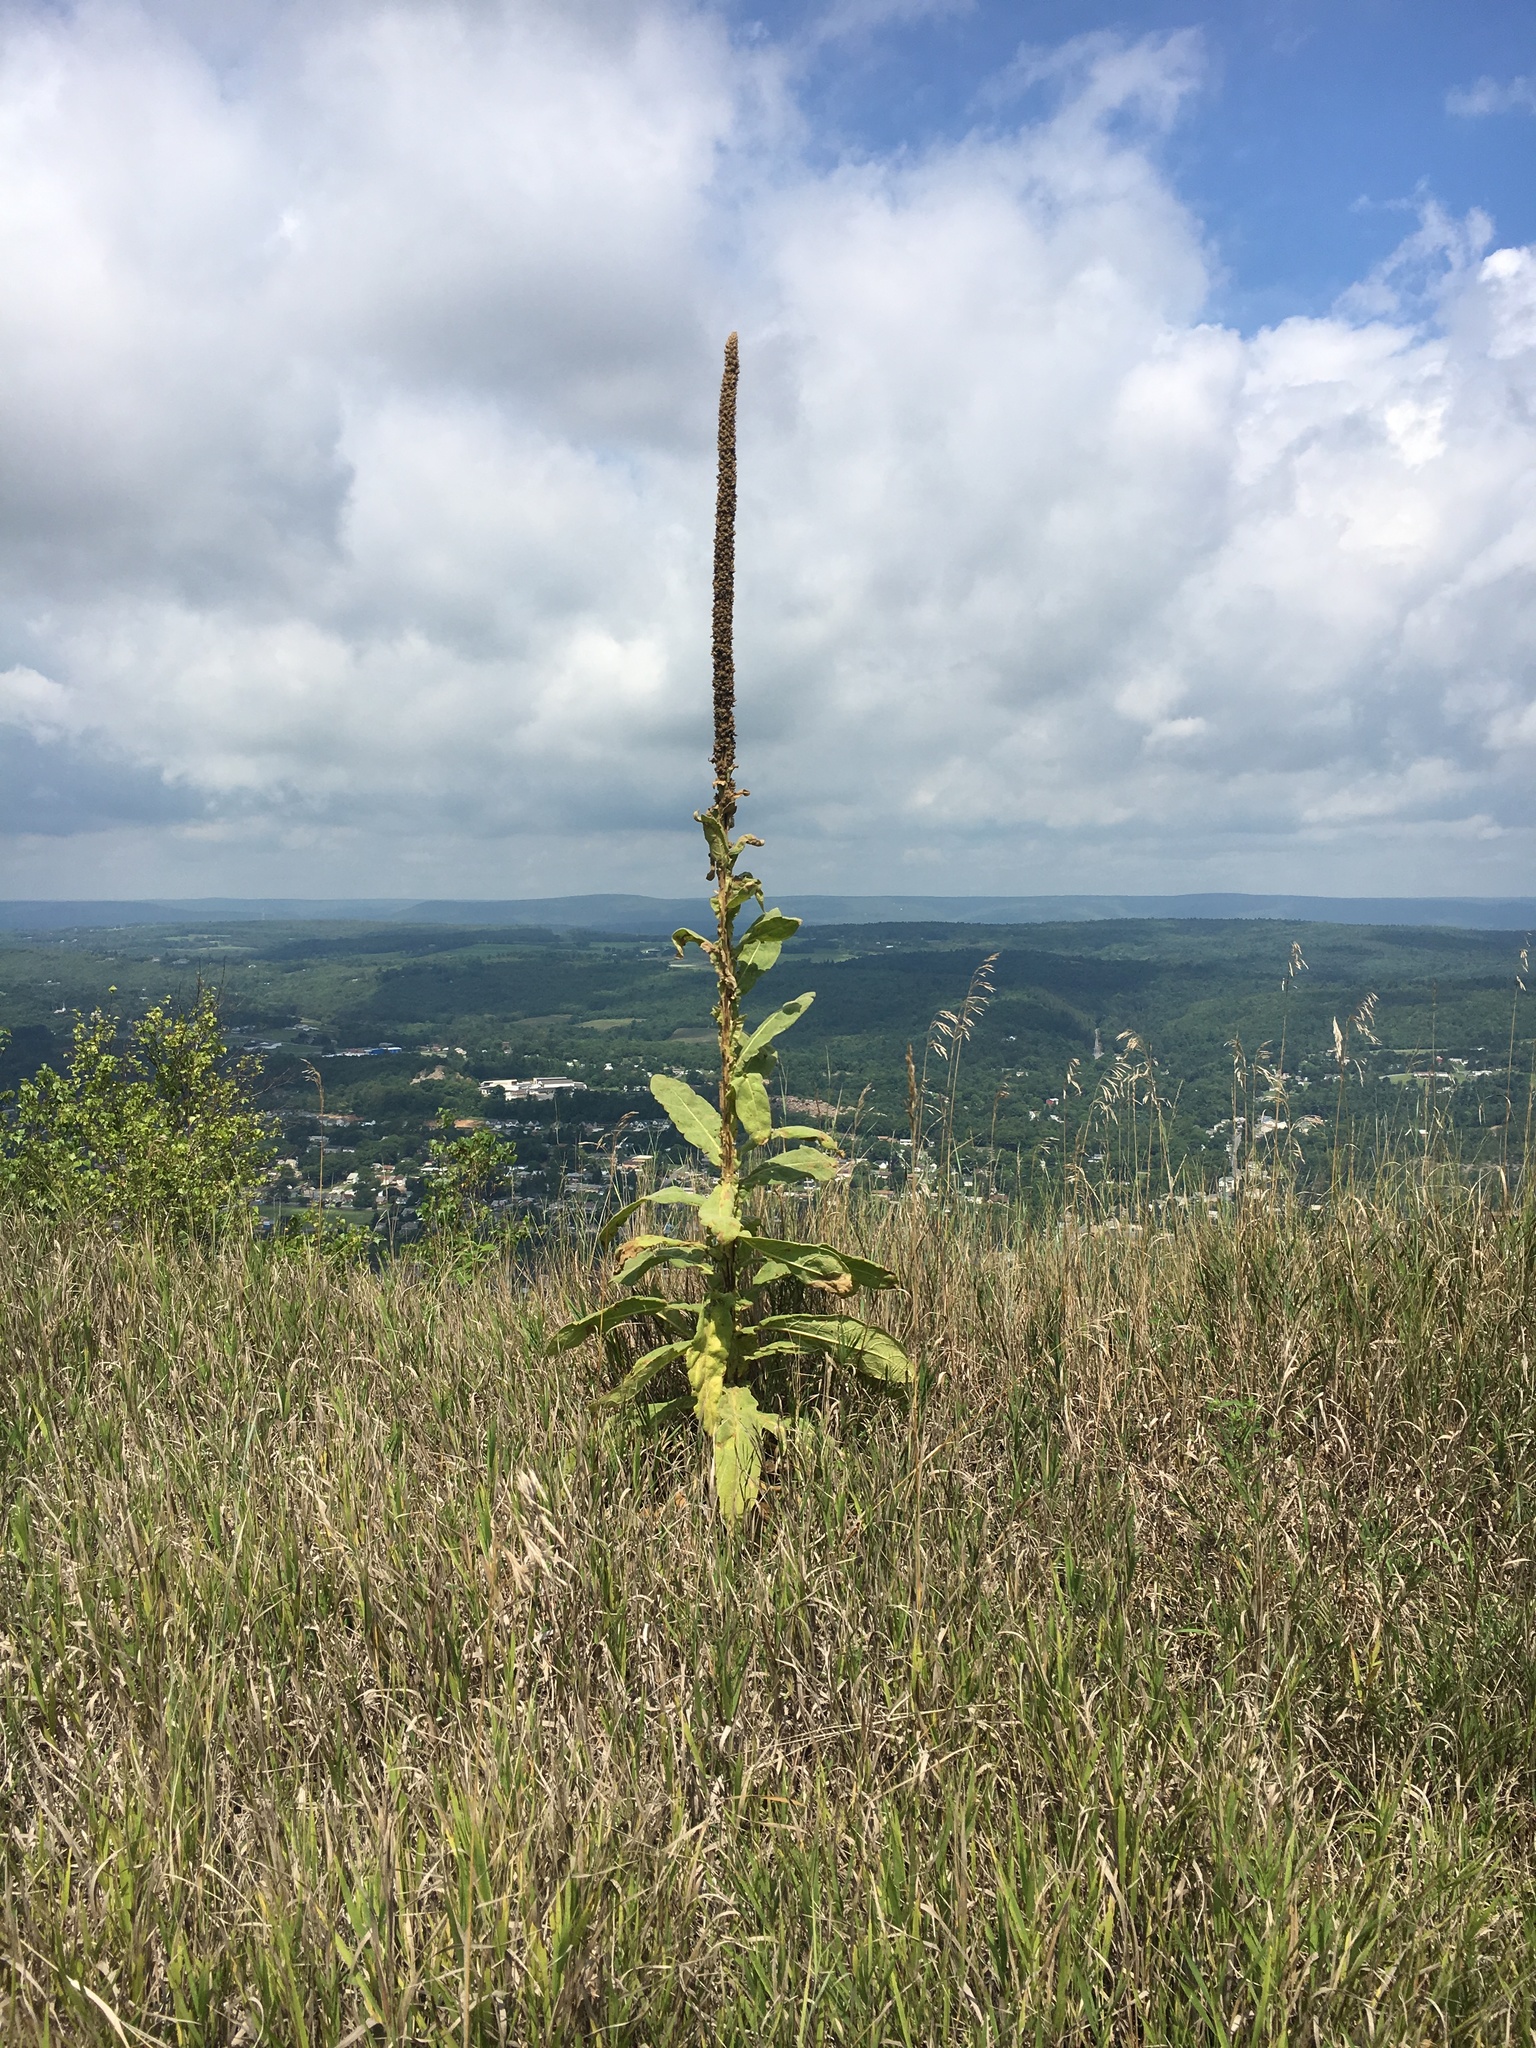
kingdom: Plantae
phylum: Tracheophyta
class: Magnoliopsida
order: Lamiales
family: Scrophulariaceae
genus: Verbascum
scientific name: Verbascum thapsus
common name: Common mullein
